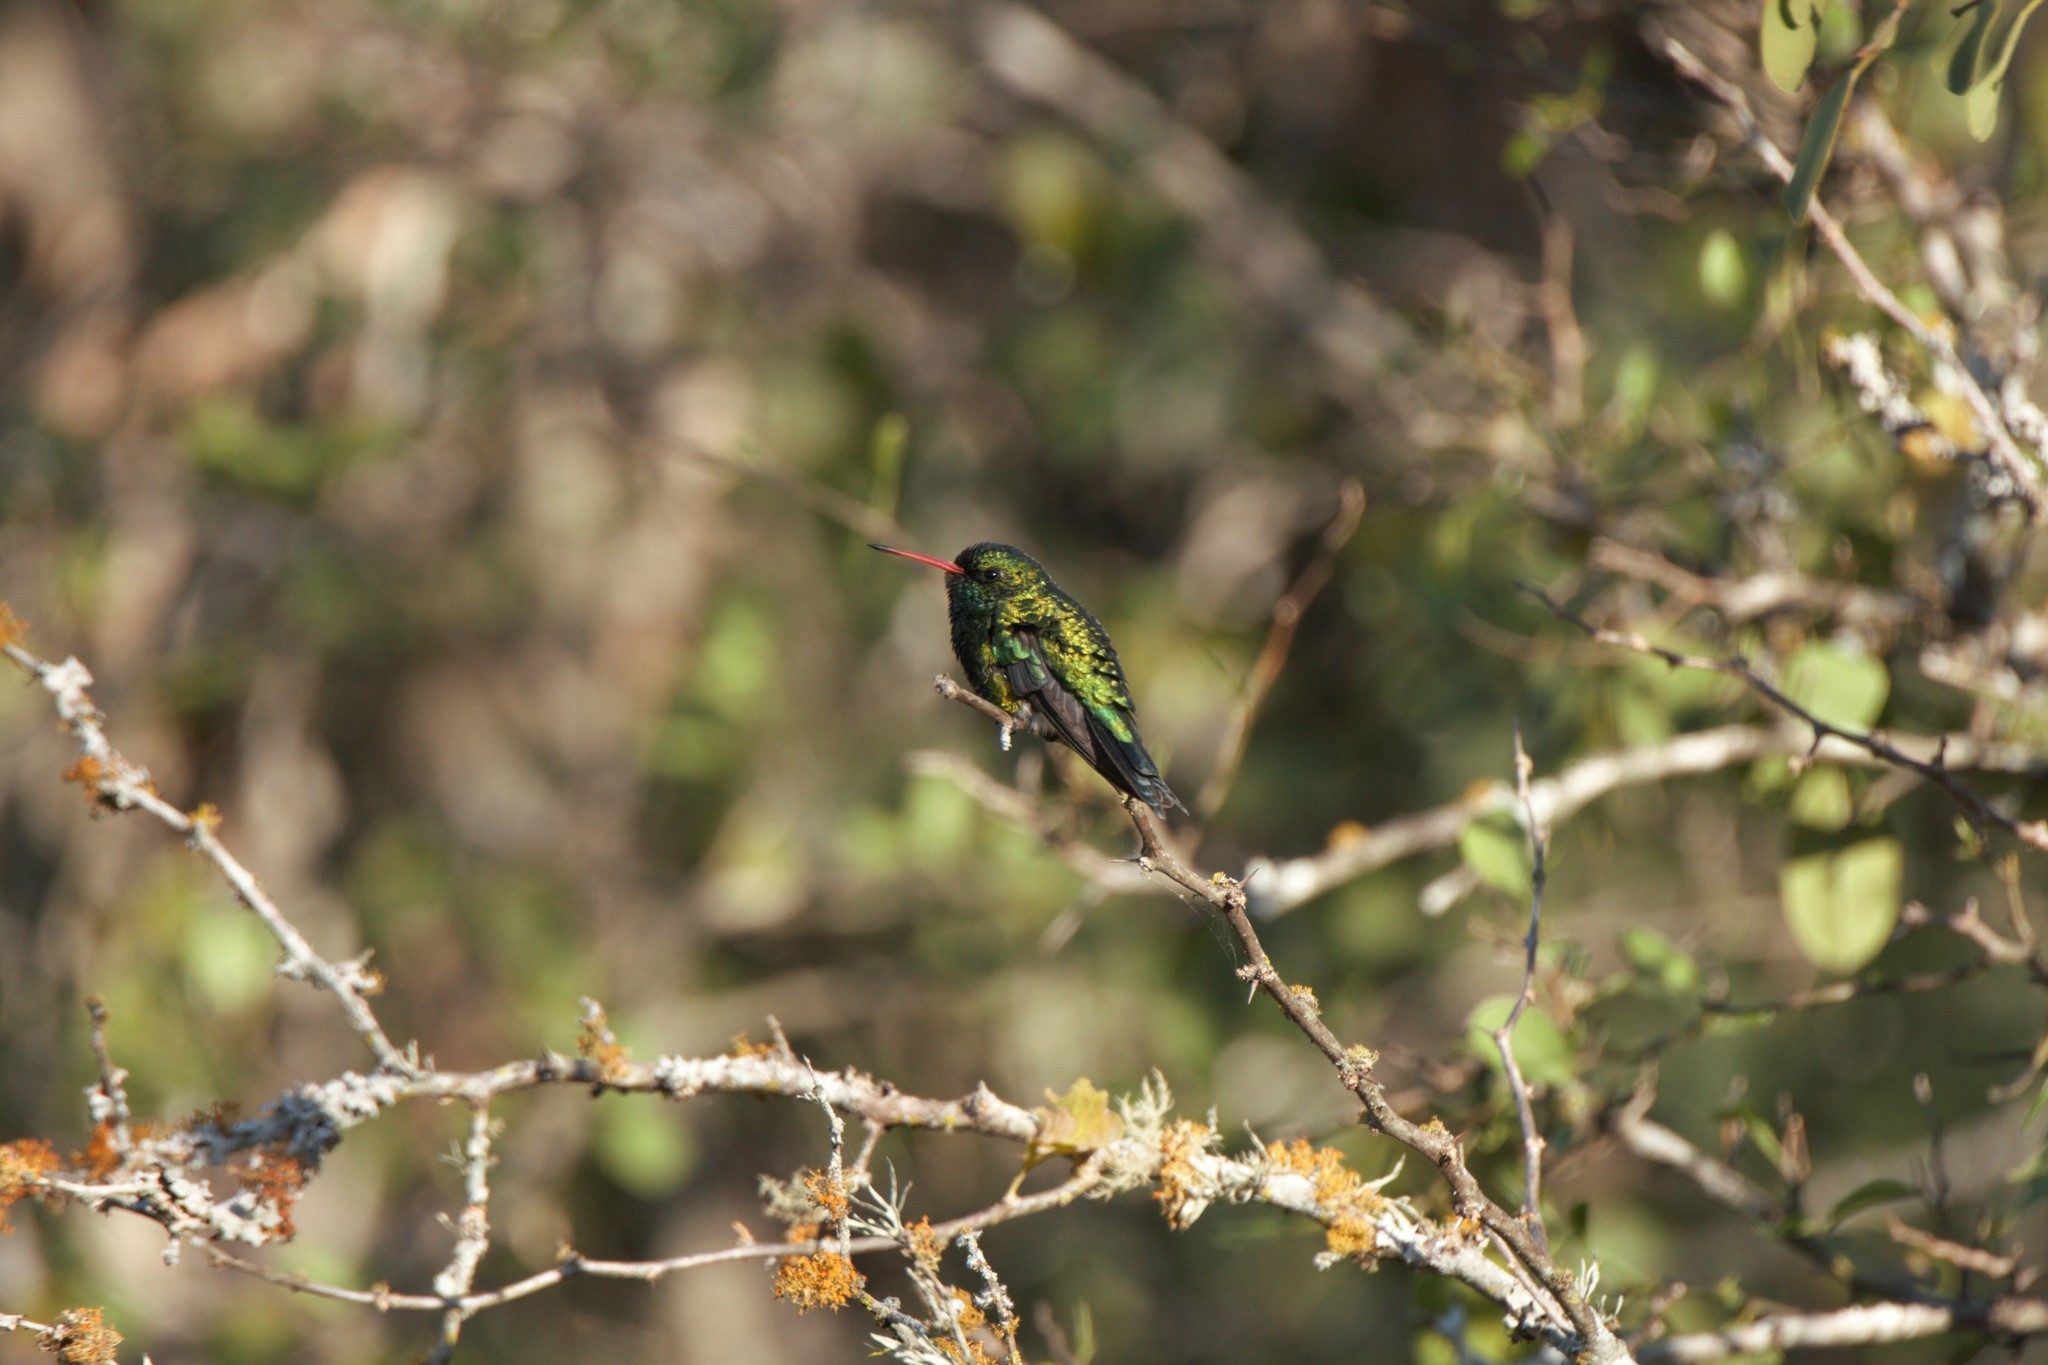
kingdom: Animalia
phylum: Chordata
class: Aves
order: Apodiformes
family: Trochilidae
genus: Chlorostilbon
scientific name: Chlorostilbon lucidus
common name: Glittering-bellied emerald
